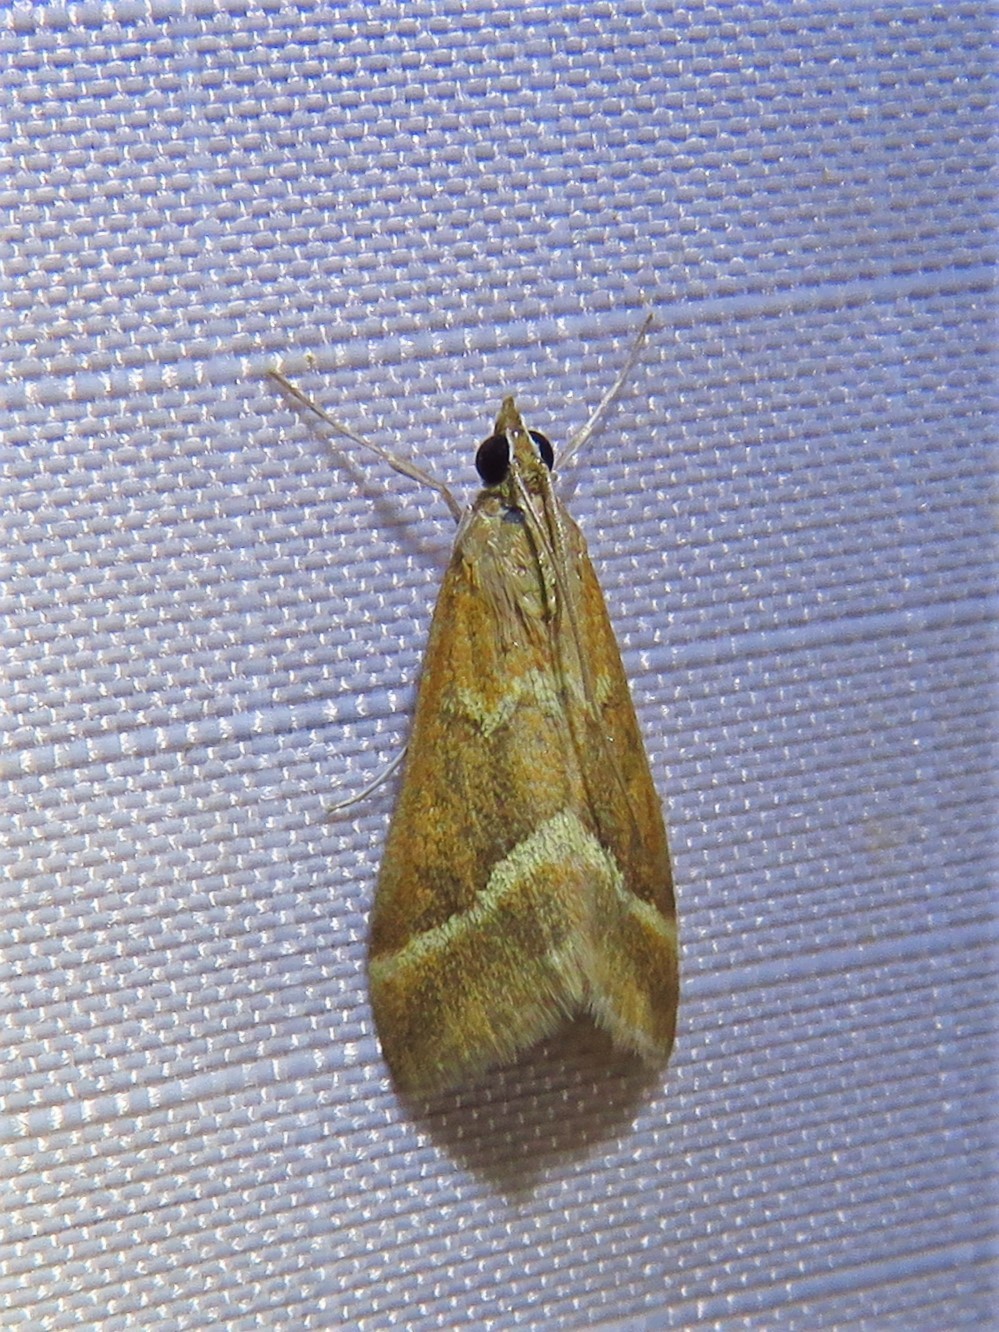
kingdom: Animalia
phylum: Arthropoda
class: Insecta
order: Lepidoptera
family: Crambidae
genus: Pyrausta
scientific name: Pyrausta volupialis
